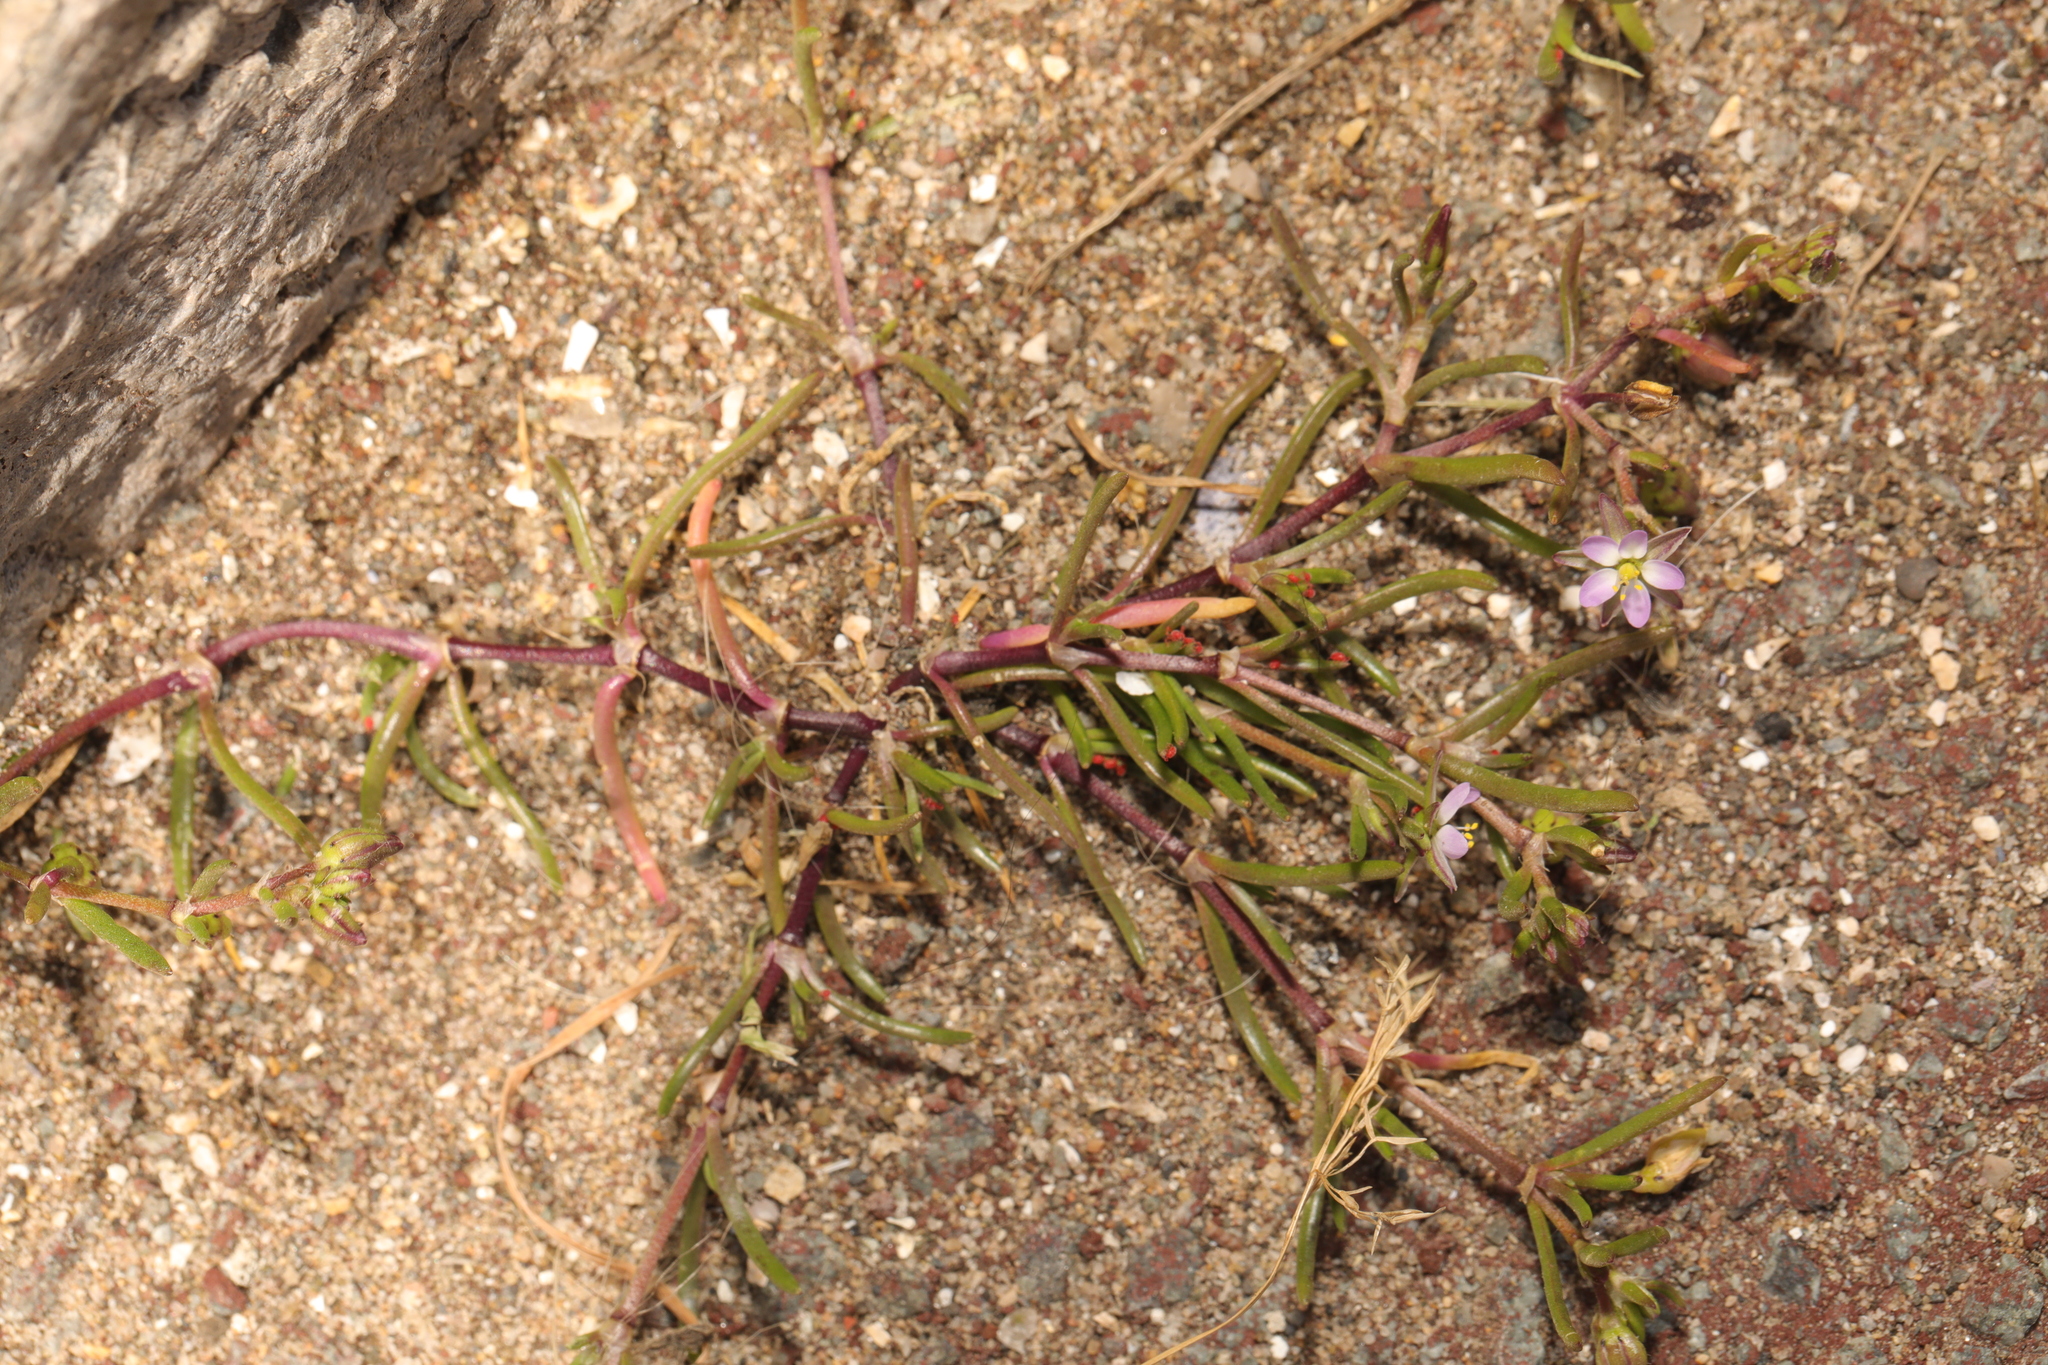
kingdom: Plantae
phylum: Tracheophyta
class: Magnoliopsida
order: Caryophyllales
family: Caryophyllaceae
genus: Spergularia
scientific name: Spergularia marina
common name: Lesser sea-spurrey
